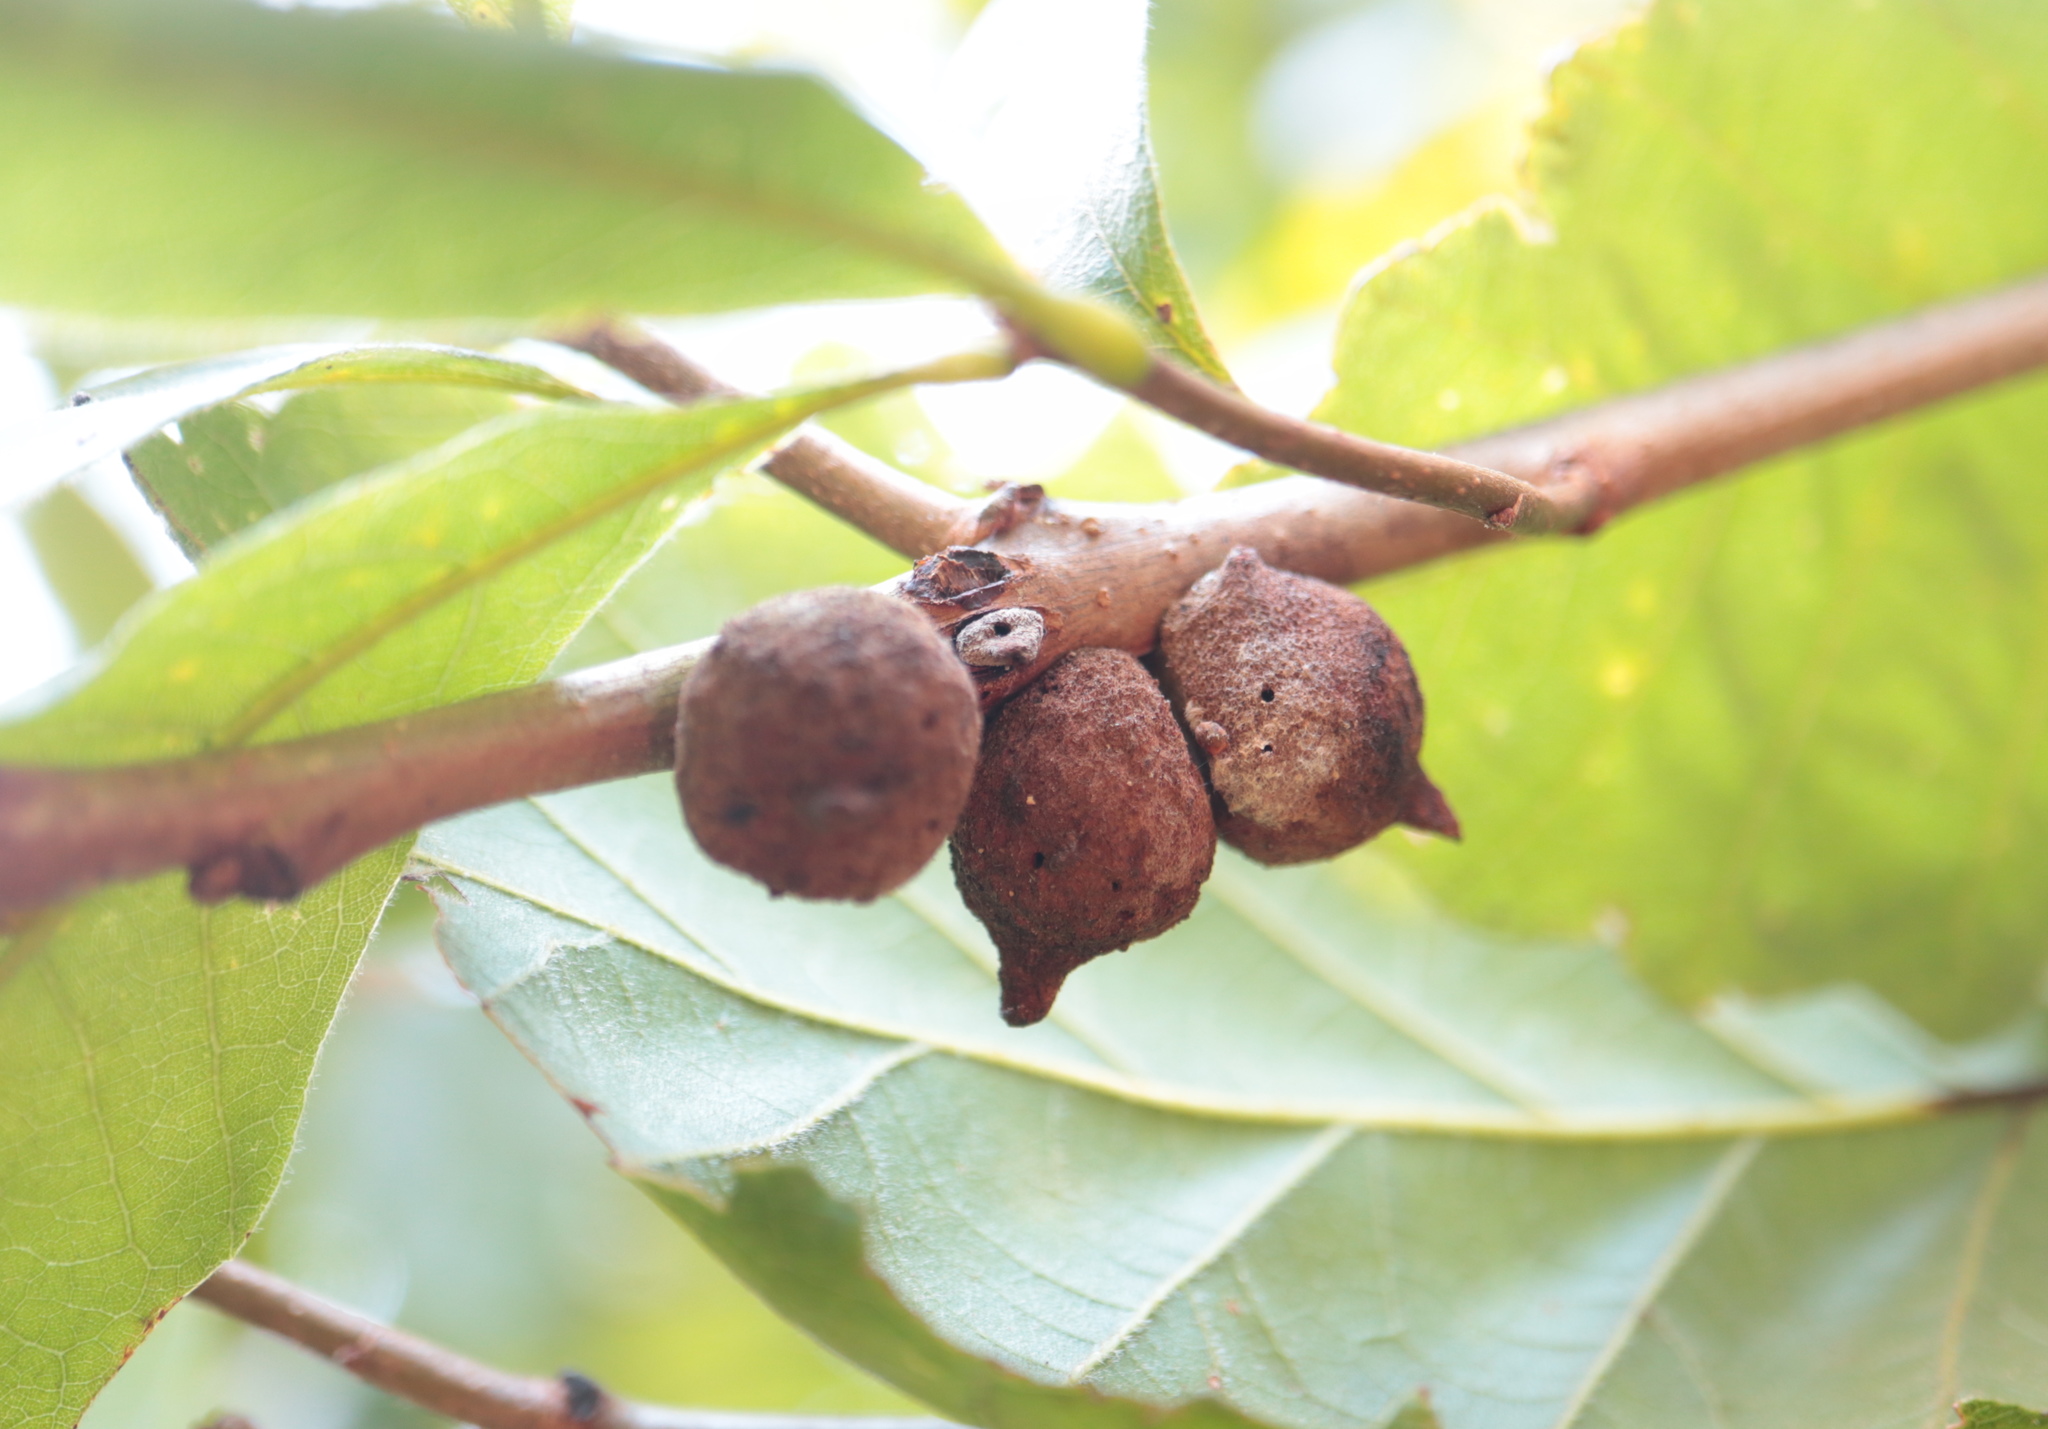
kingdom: Animalia
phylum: Arthropoda
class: Insecta
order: Hymenoptera
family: Cynipidae
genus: Disholcaspis
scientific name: Disholcaspis
